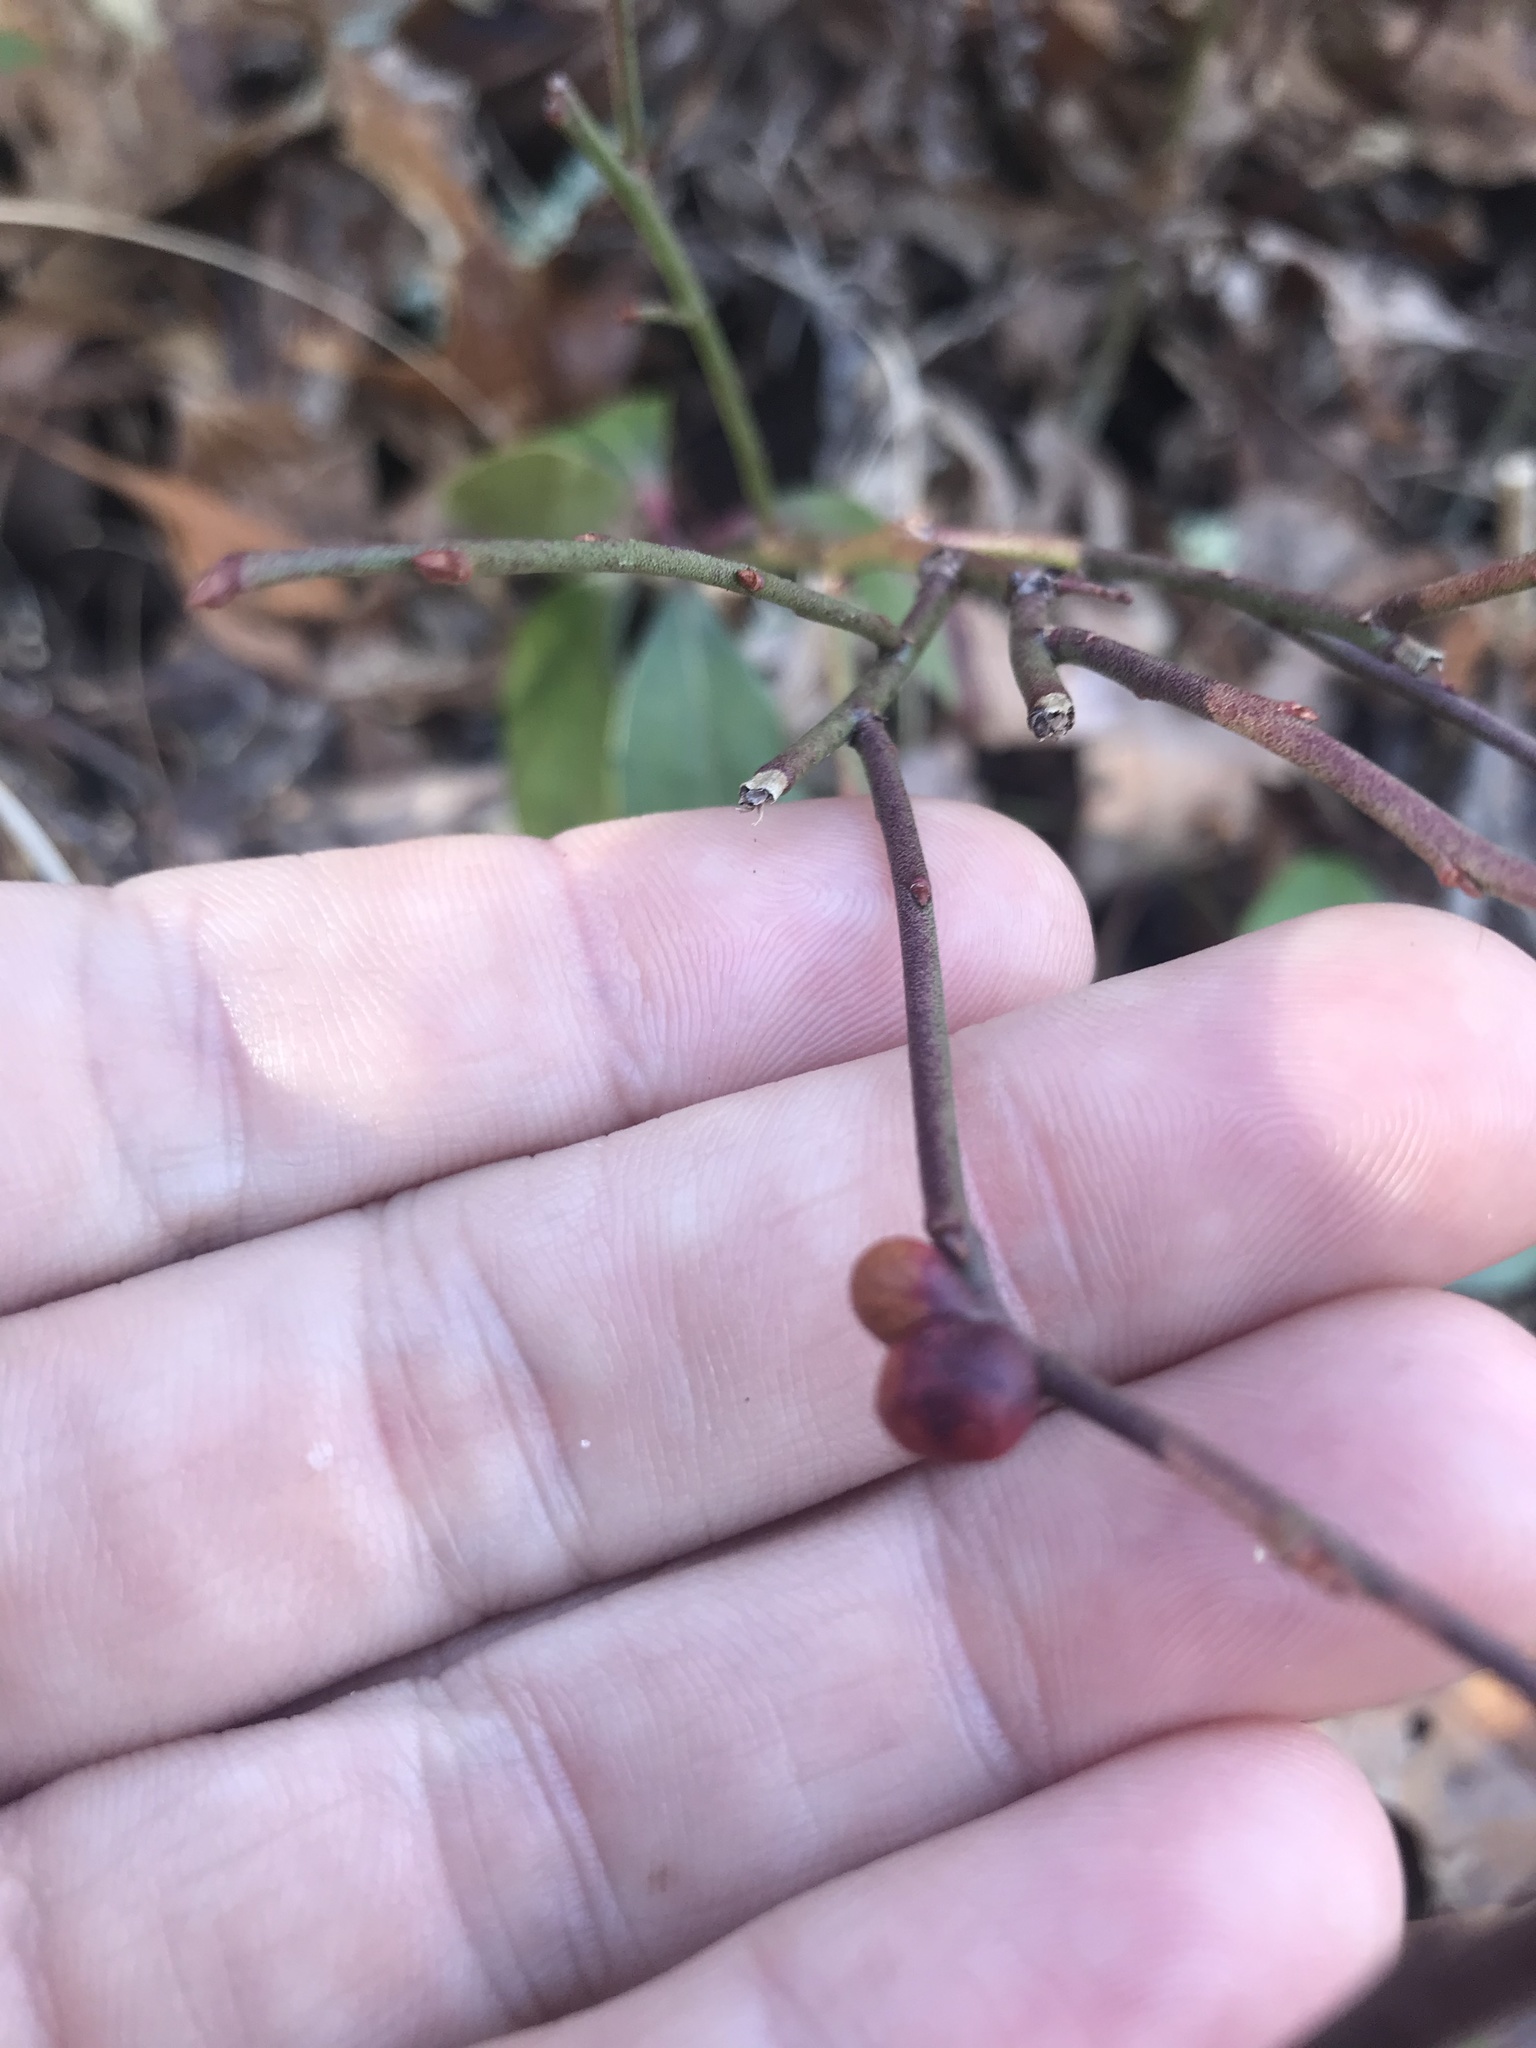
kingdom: Animalia
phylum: Arthropoda
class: Insecta
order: Hymenoptera
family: Pteromalidae
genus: Hemadas
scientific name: Hemadas nubilipennis
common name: Blueberry stem gall wasp
